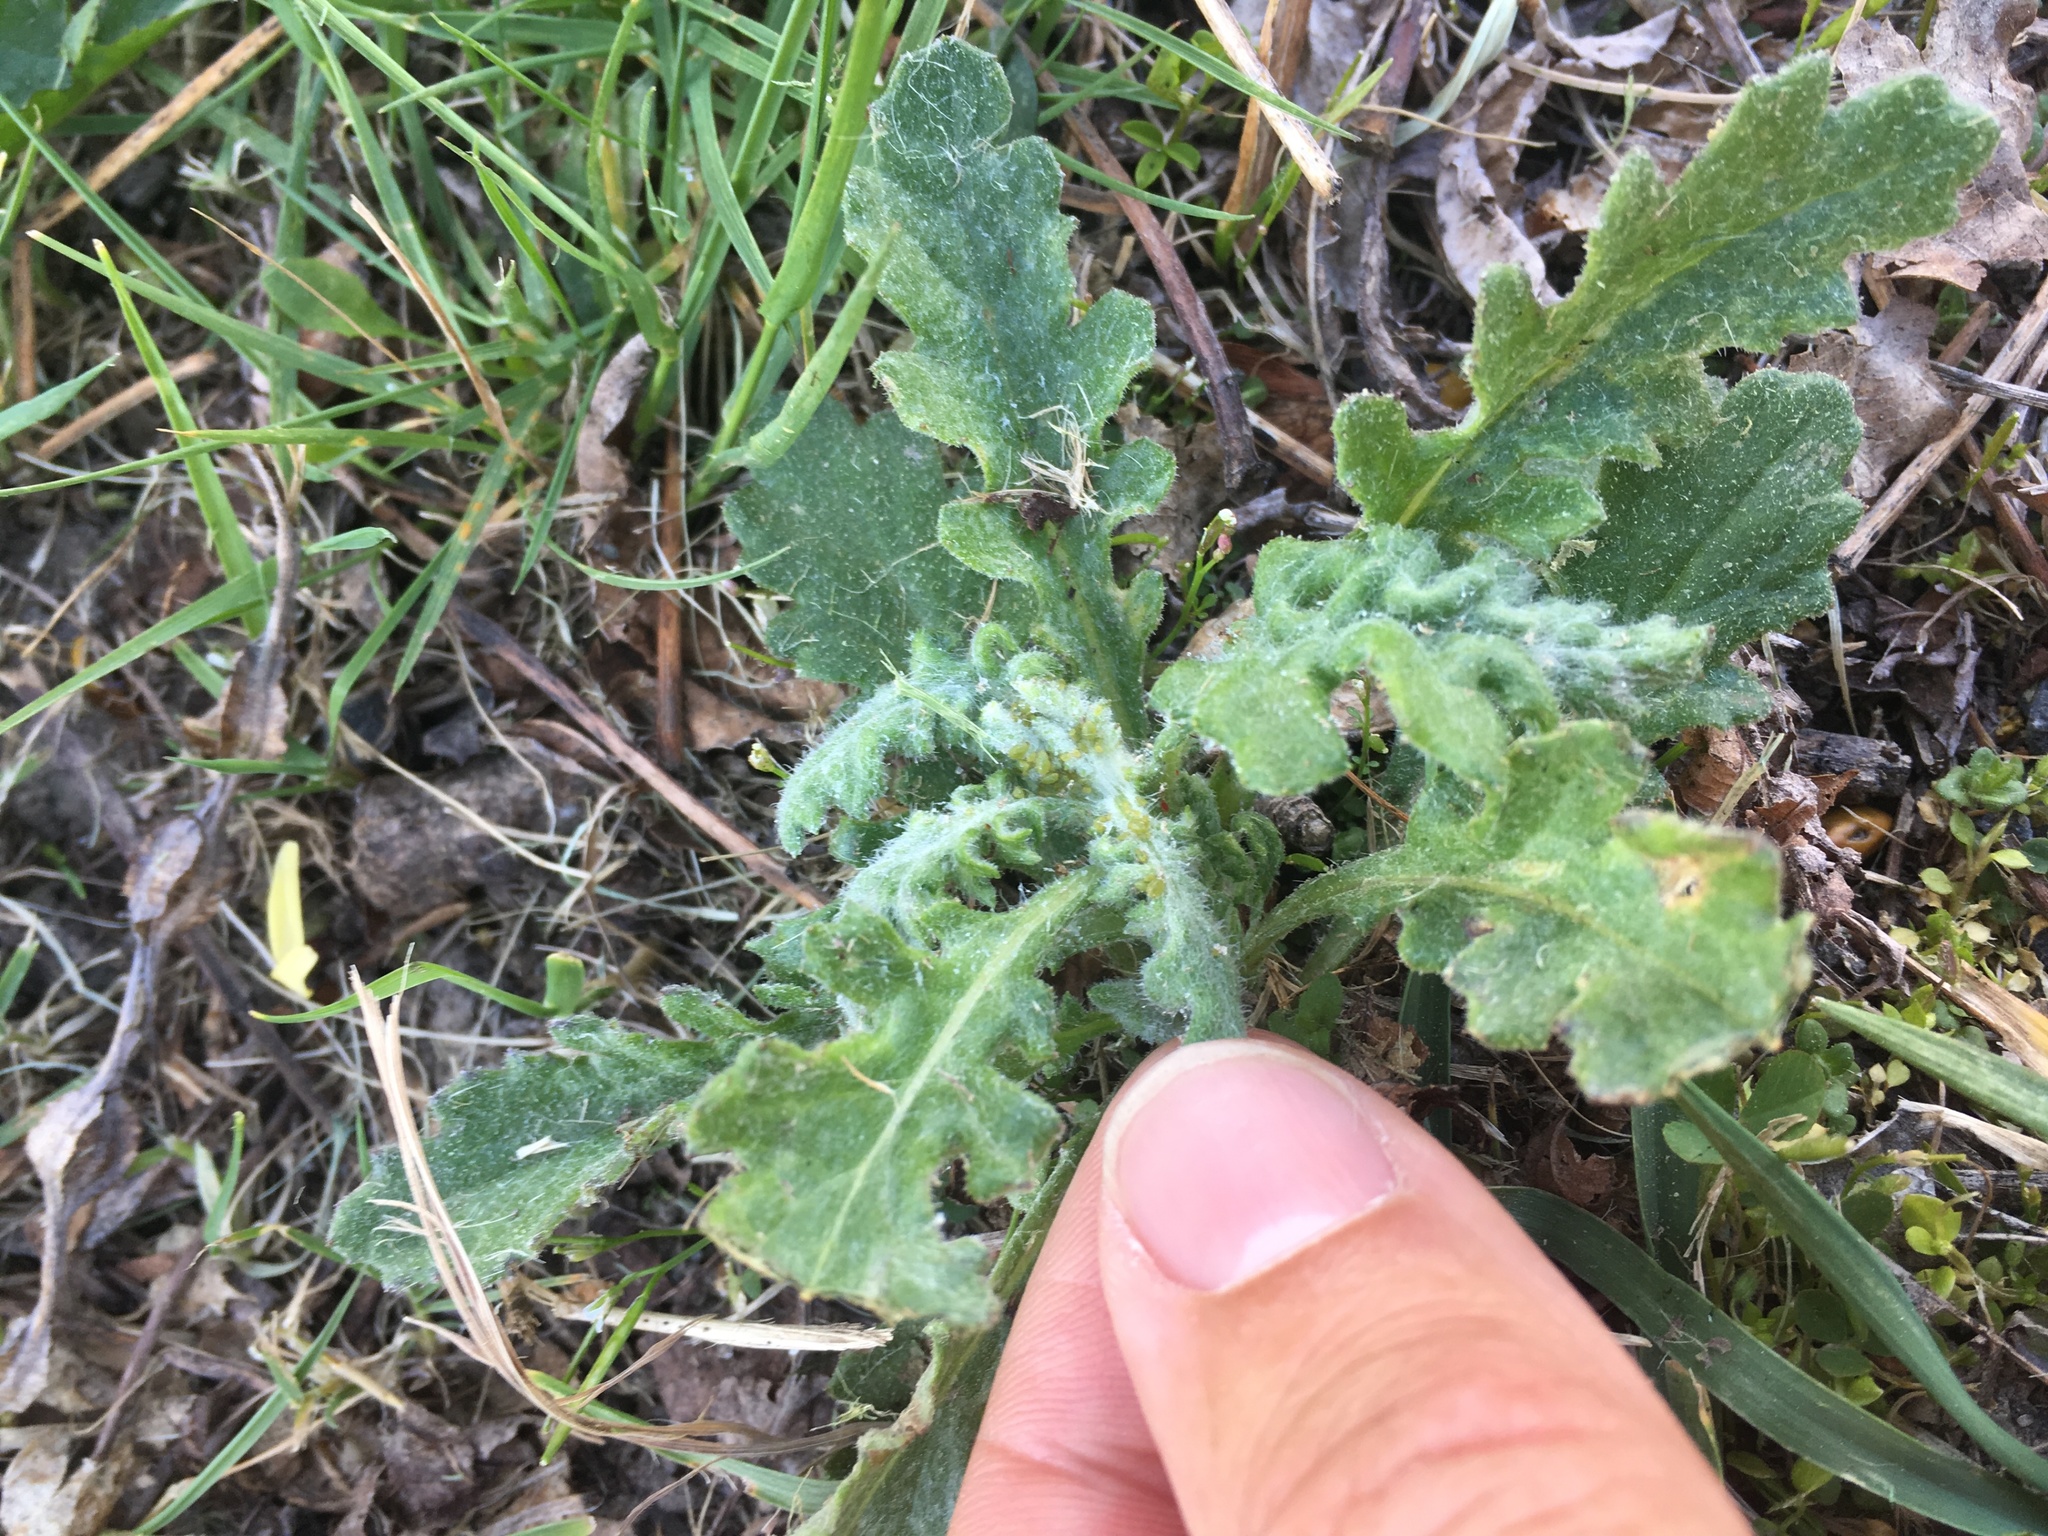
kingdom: Plantae
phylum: Tracheophyta
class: Magnoliopsida
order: Asterales
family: Asteraceae
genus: Senecio
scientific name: Senecio glomeratus
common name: Cutleaf burnweed
